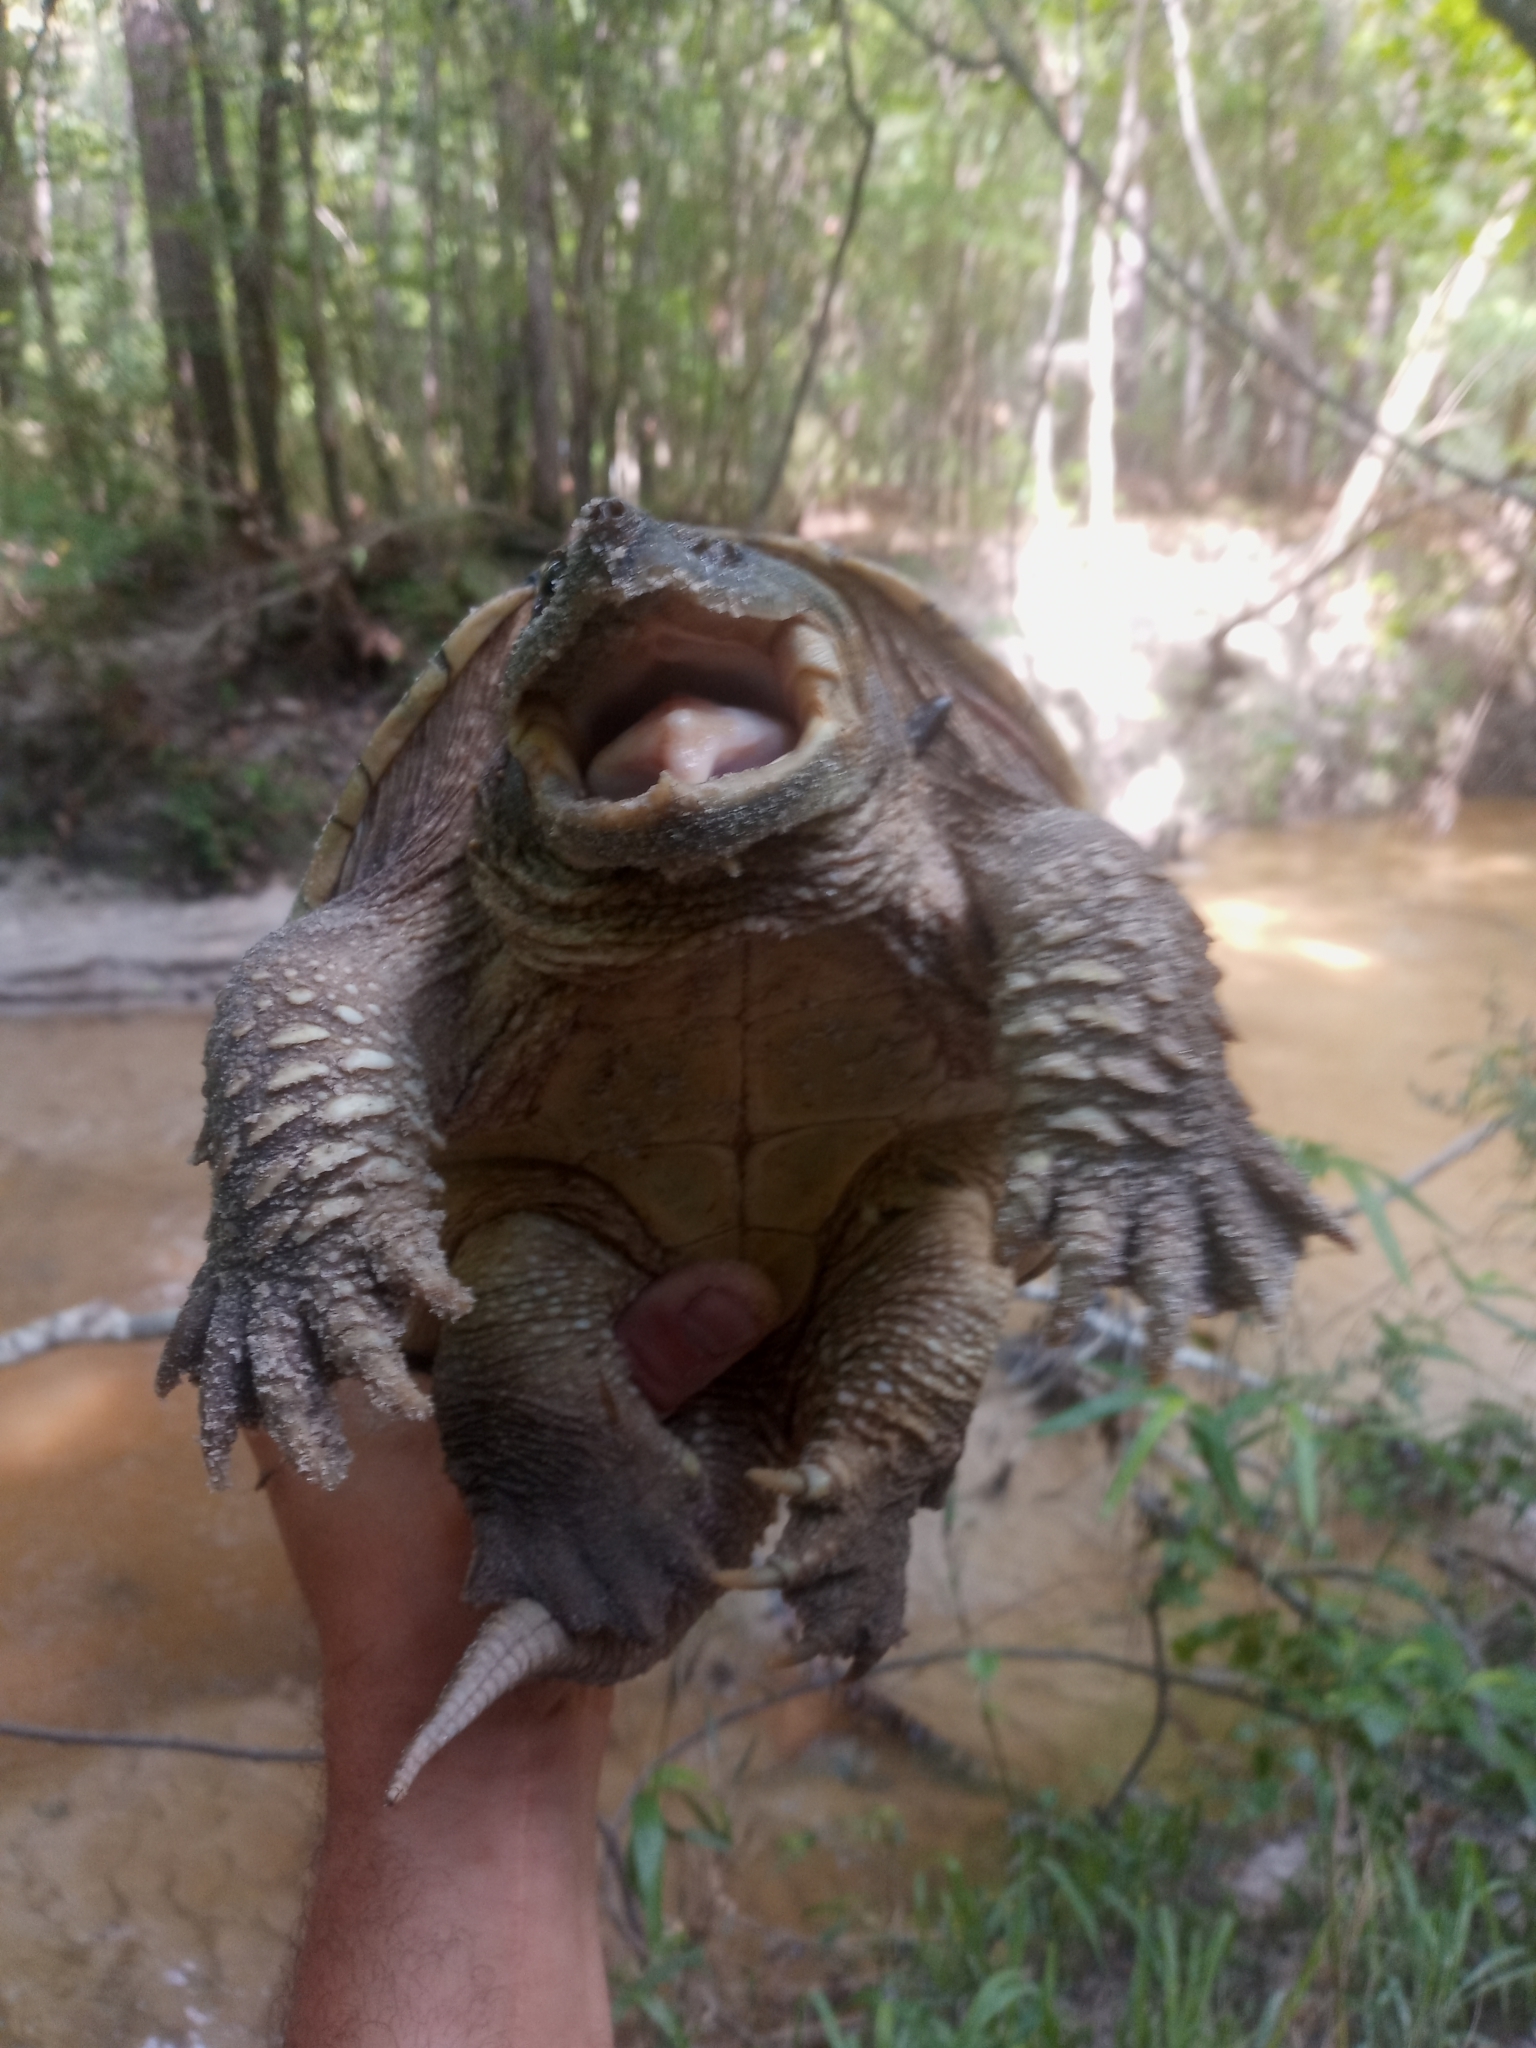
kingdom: Animalia
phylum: Chordata
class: Testudines
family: Chelydridae
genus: Chelydra
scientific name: Chelydra serpentina
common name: Common snapping turtle
